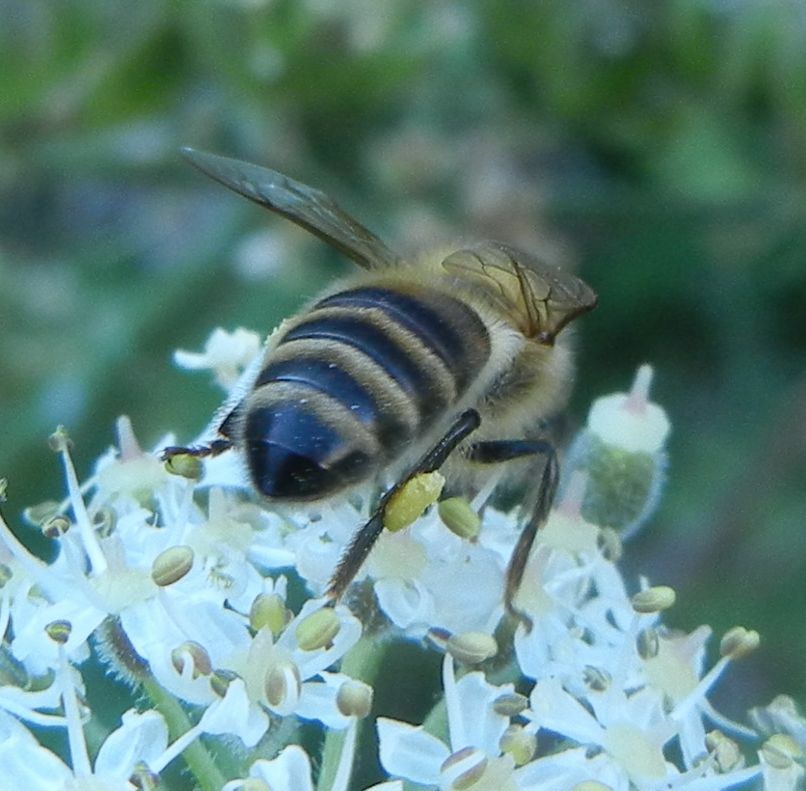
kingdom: Animalia
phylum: Arthropoda
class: Insecta
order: Hymenoptera
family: Apidae
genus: Apis
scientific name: Apis mellifera
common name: Honey bee
